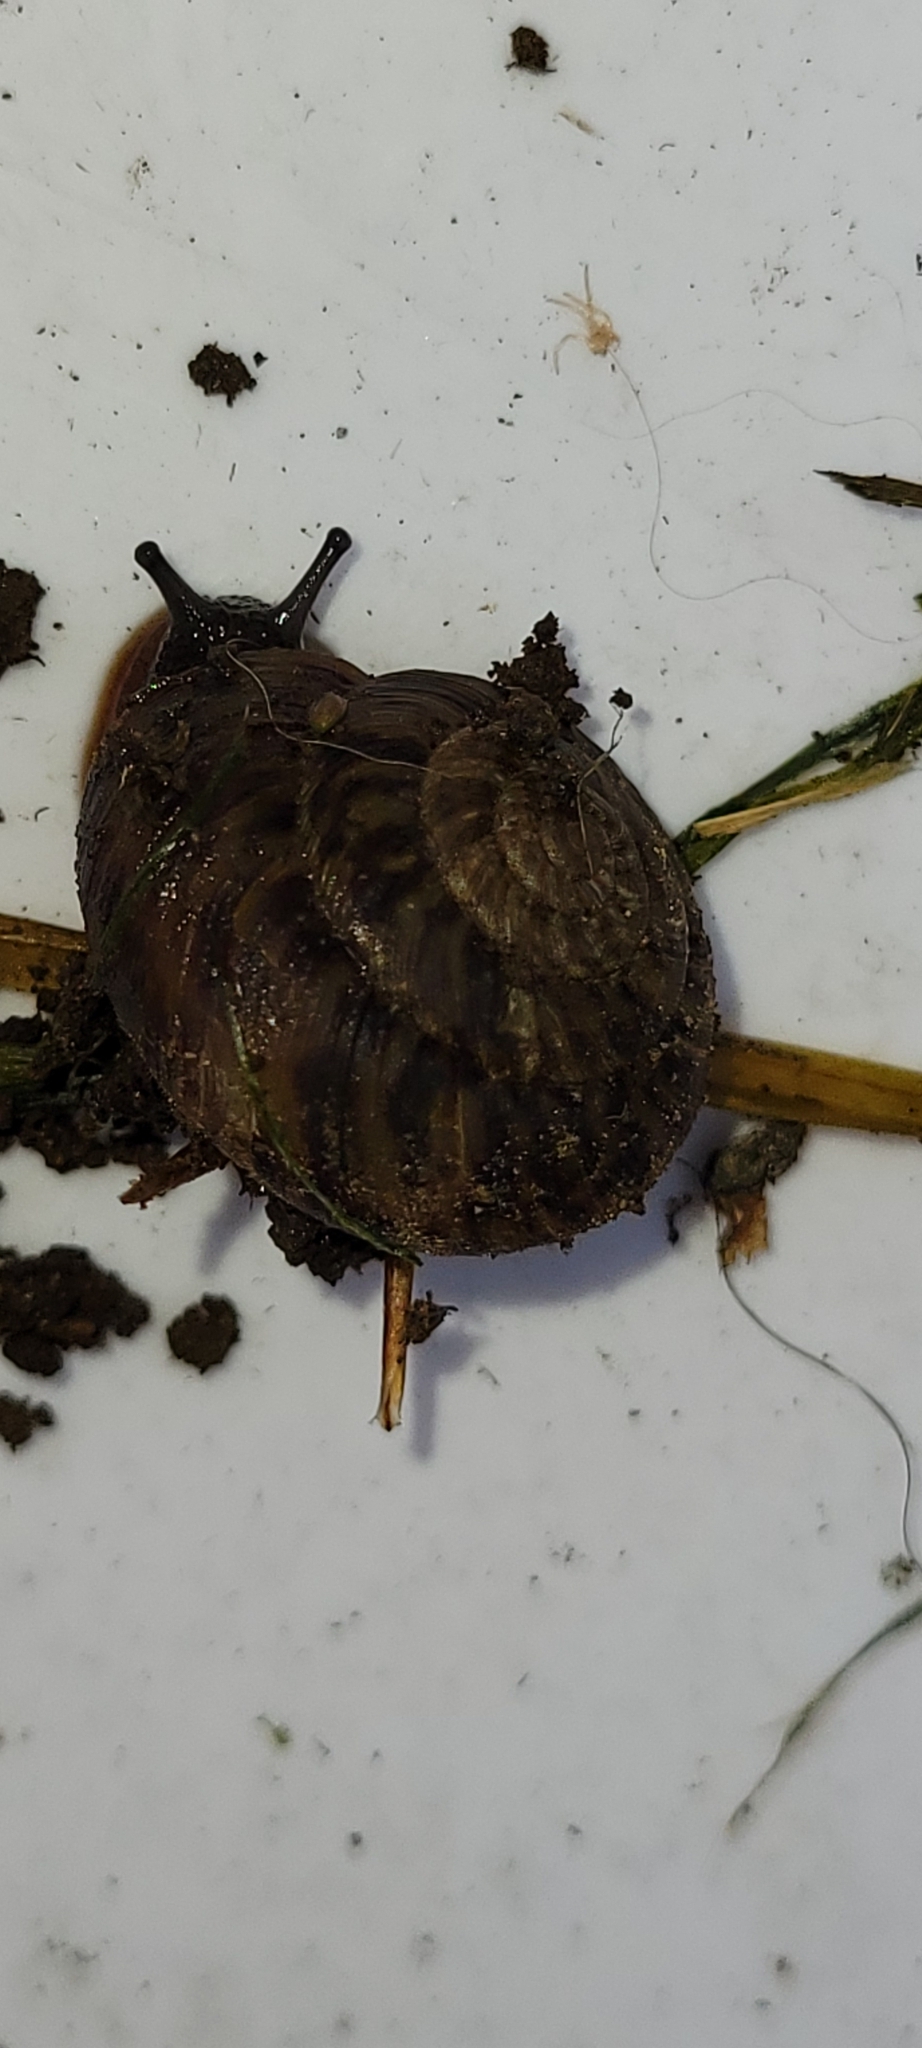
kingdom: Animalia
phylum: Mollusca
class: Gastropoda
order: Stylommatophora
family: Discidae
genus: Anguispira
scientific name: Anguispira alternata
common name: Flamed tigersnail
